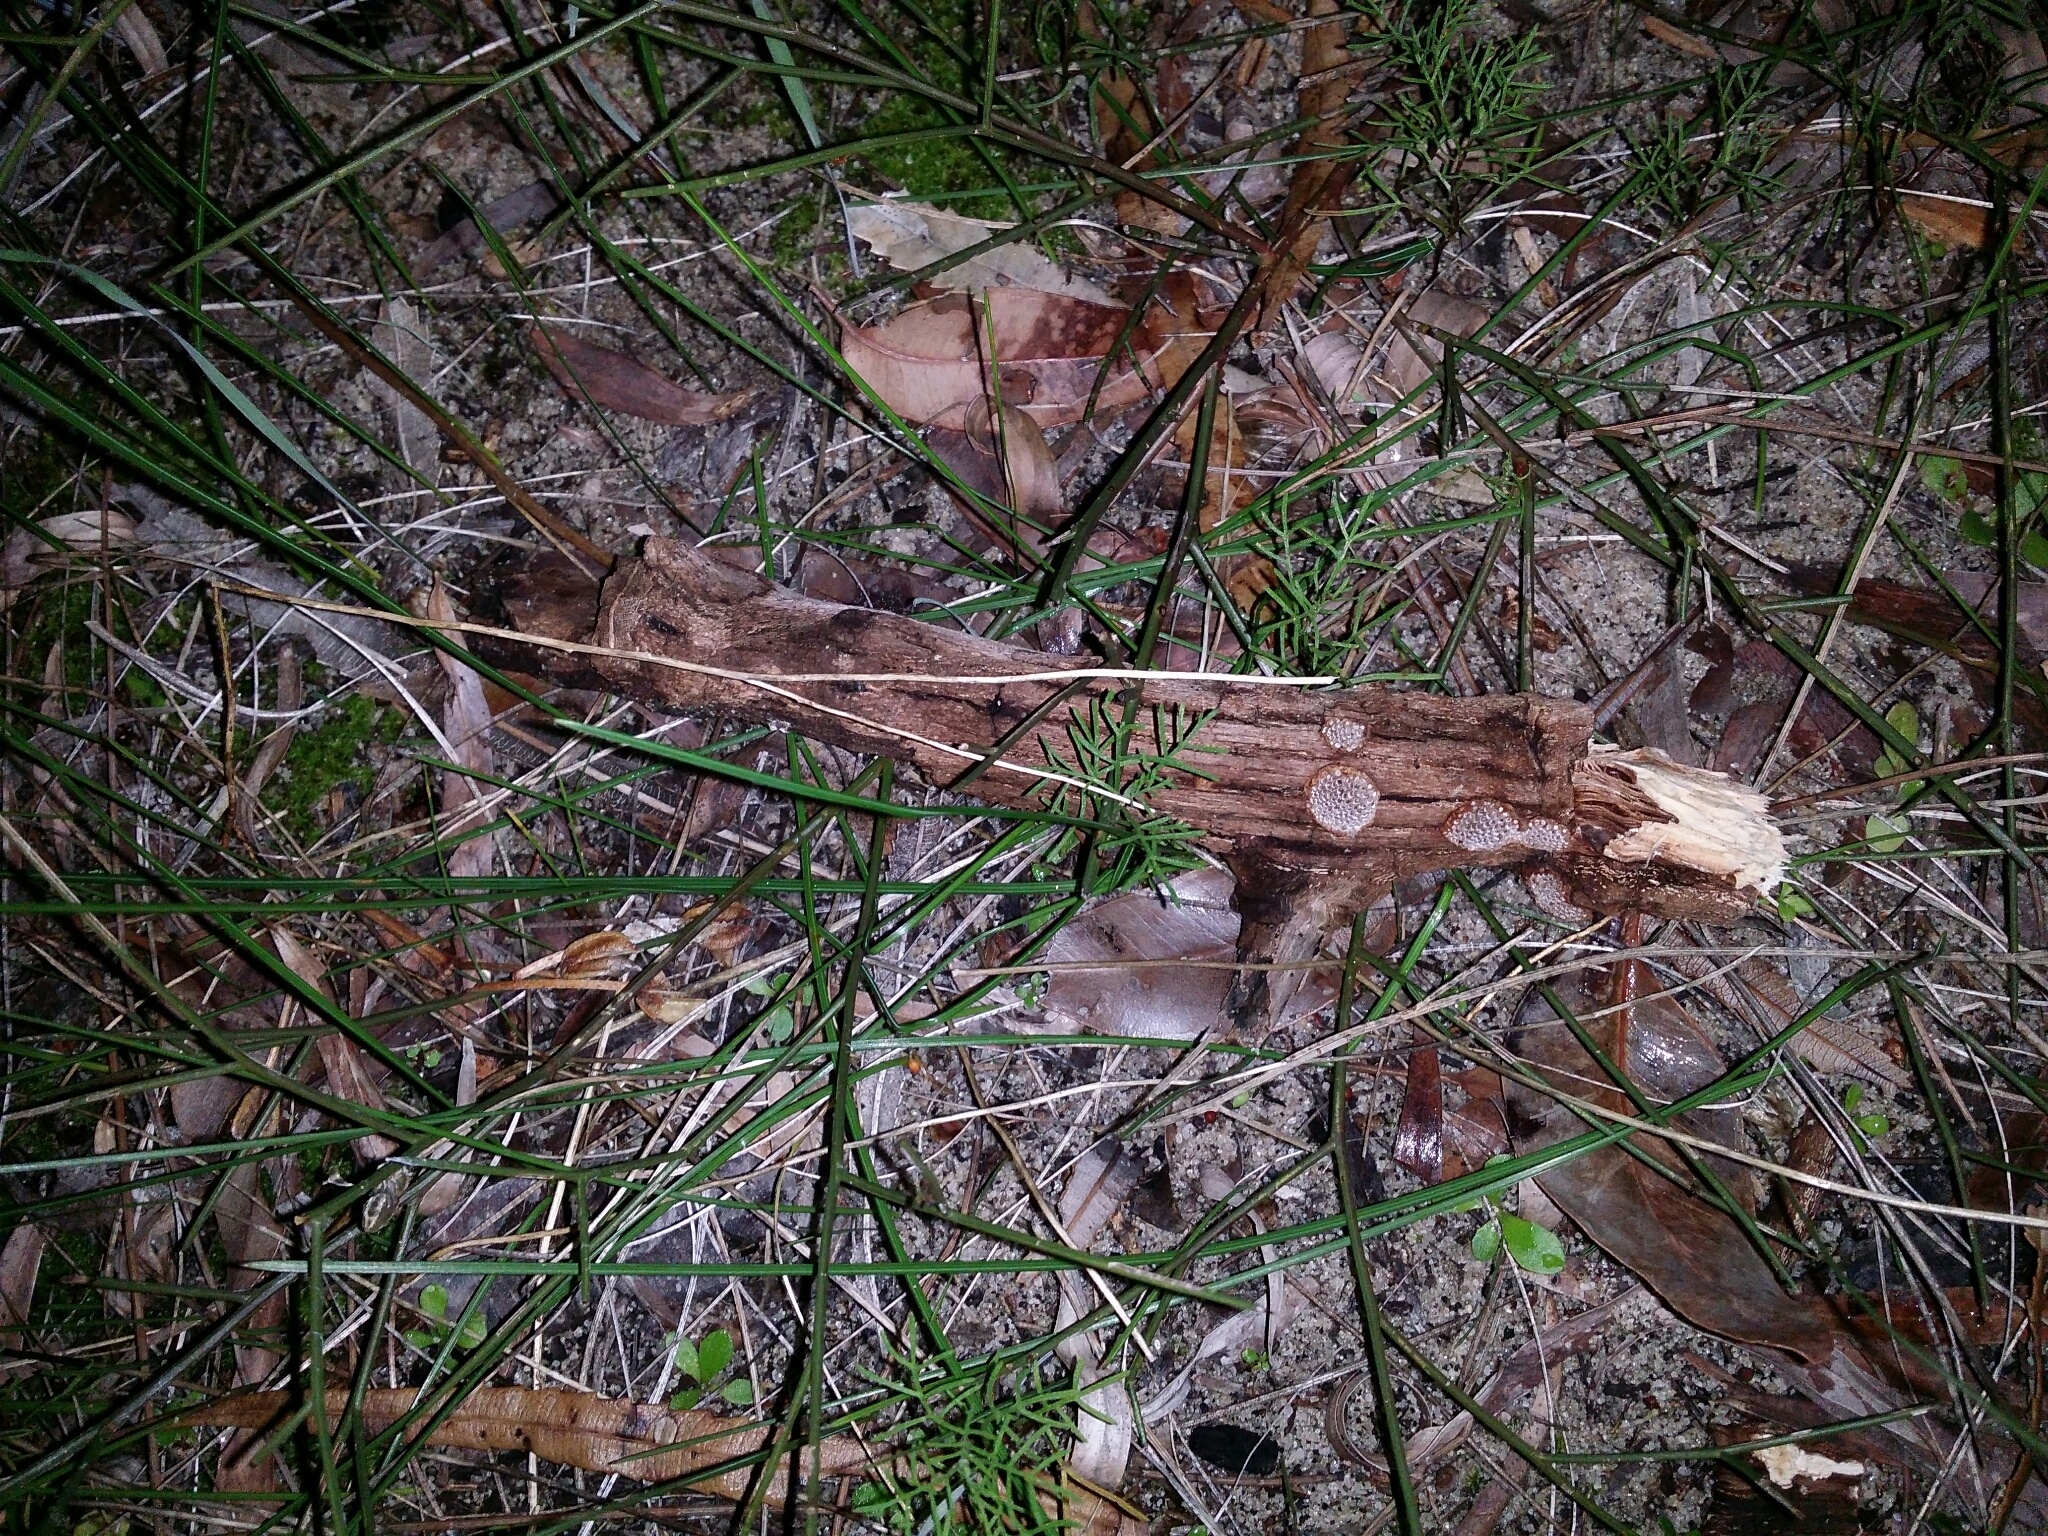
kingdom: Fungi
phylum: Basidiomycota
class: Agaricomycetes
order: Polyporales
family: Polyporaceae
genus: Phaeotrametes
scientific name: Phaeotrametes decipiens
